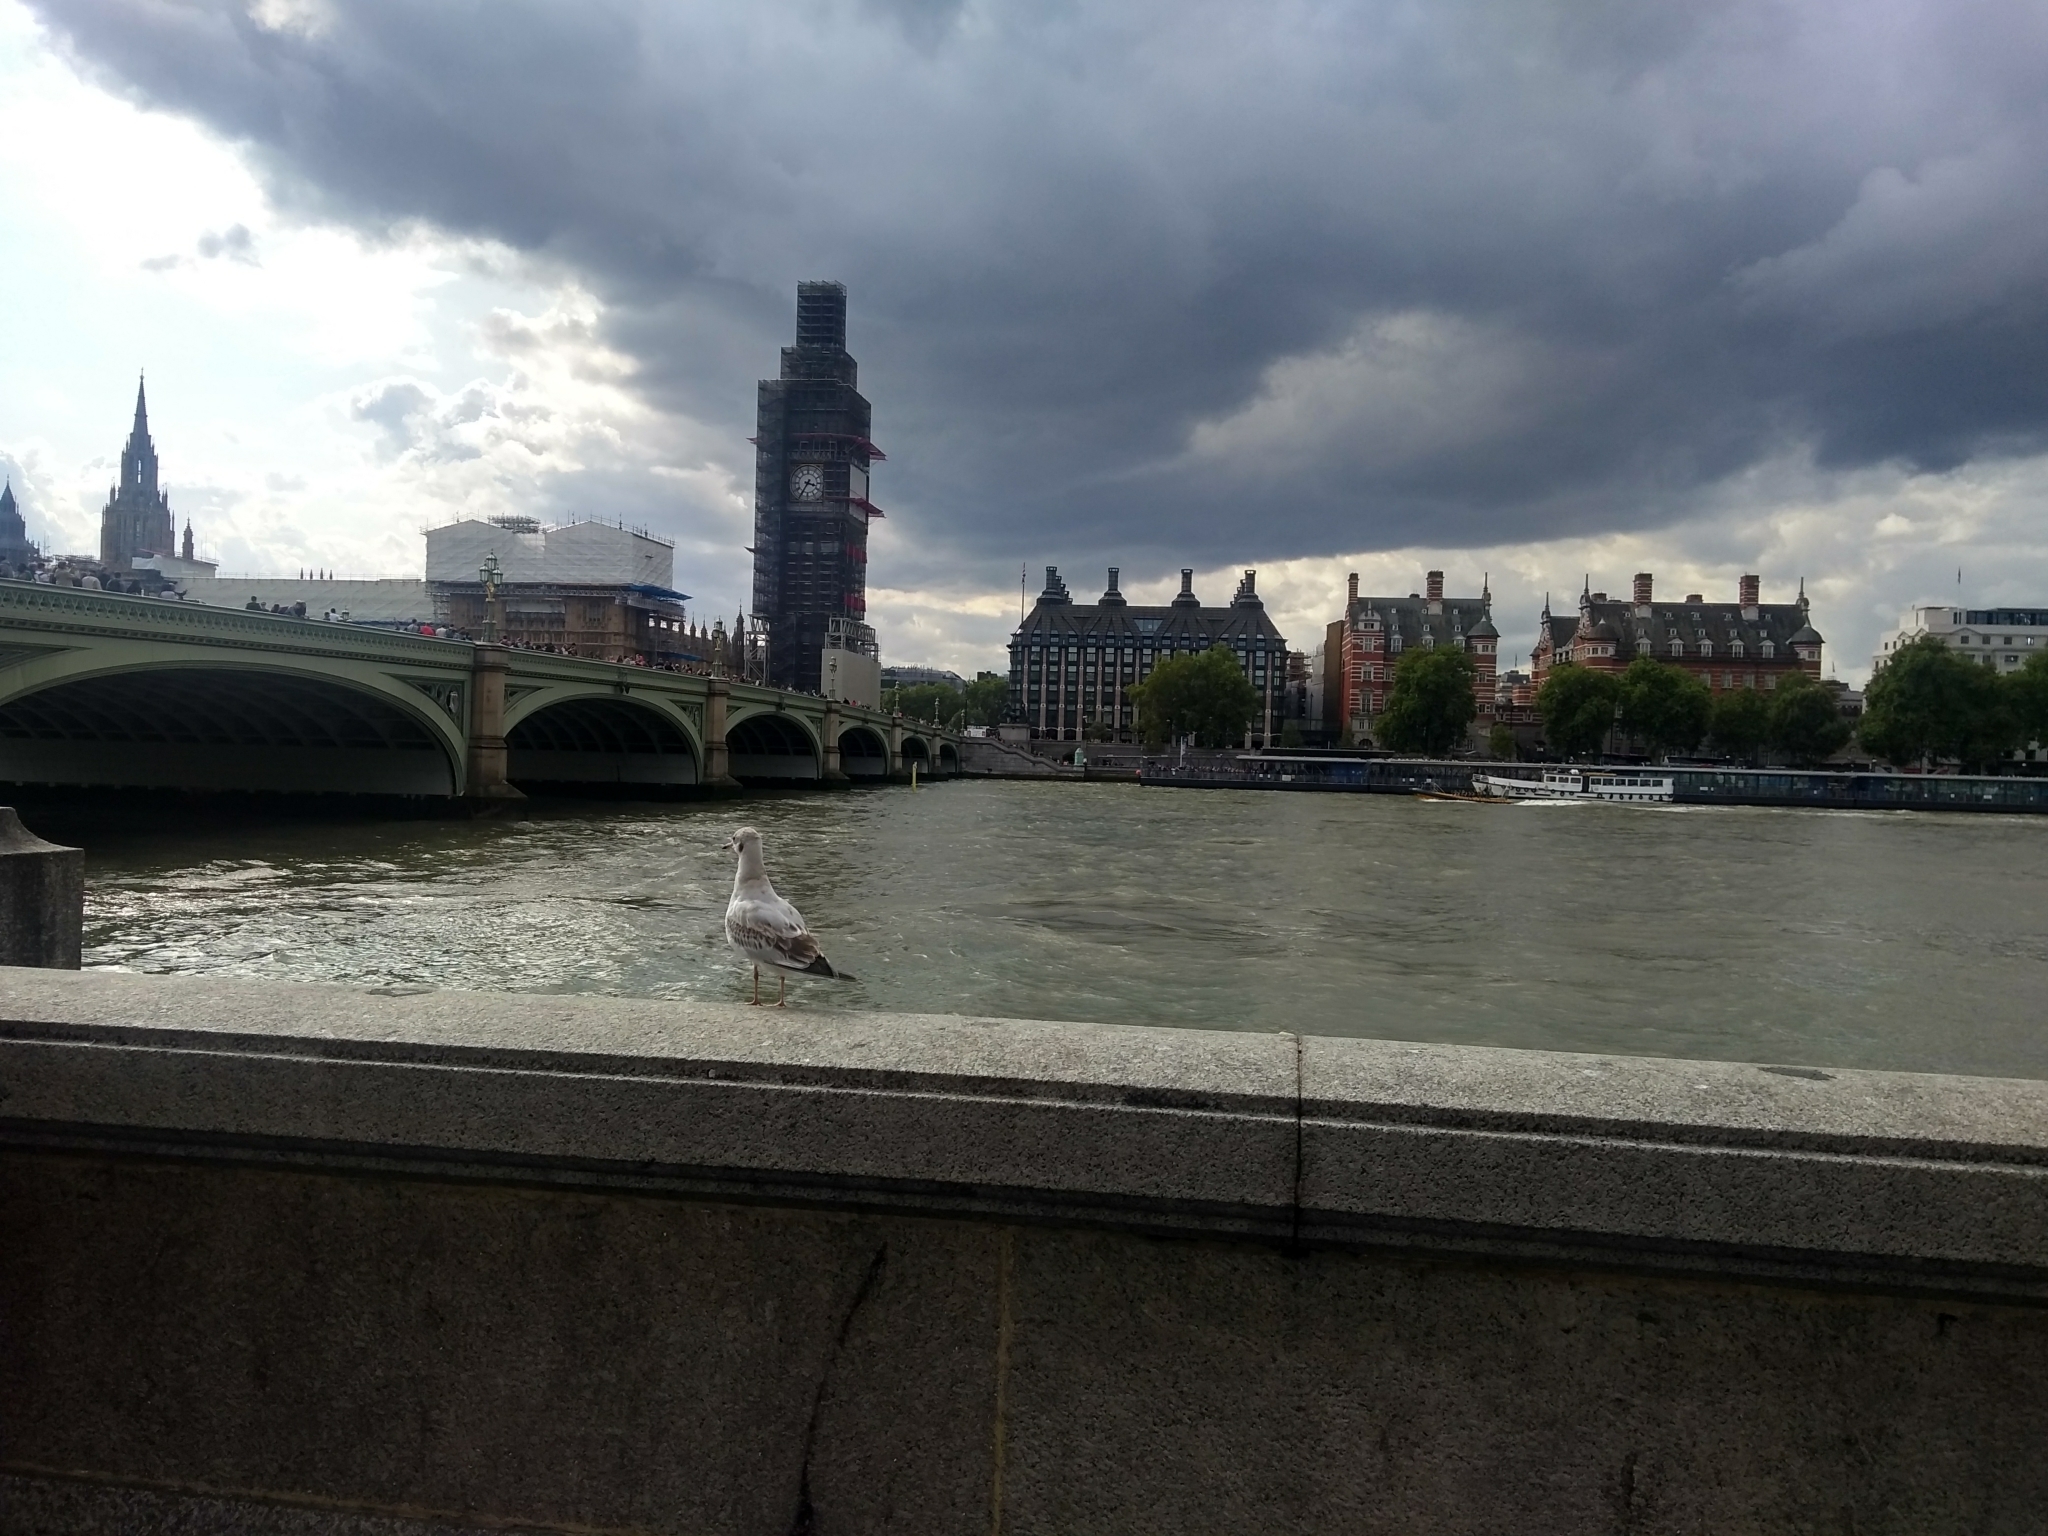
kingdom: Animalia
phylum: Chordata
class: Aves
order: Charadriiformes
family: Laridae
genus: Chroicocephalus
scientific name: Chroicocephalus ridibundus
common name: Black-headed gull
